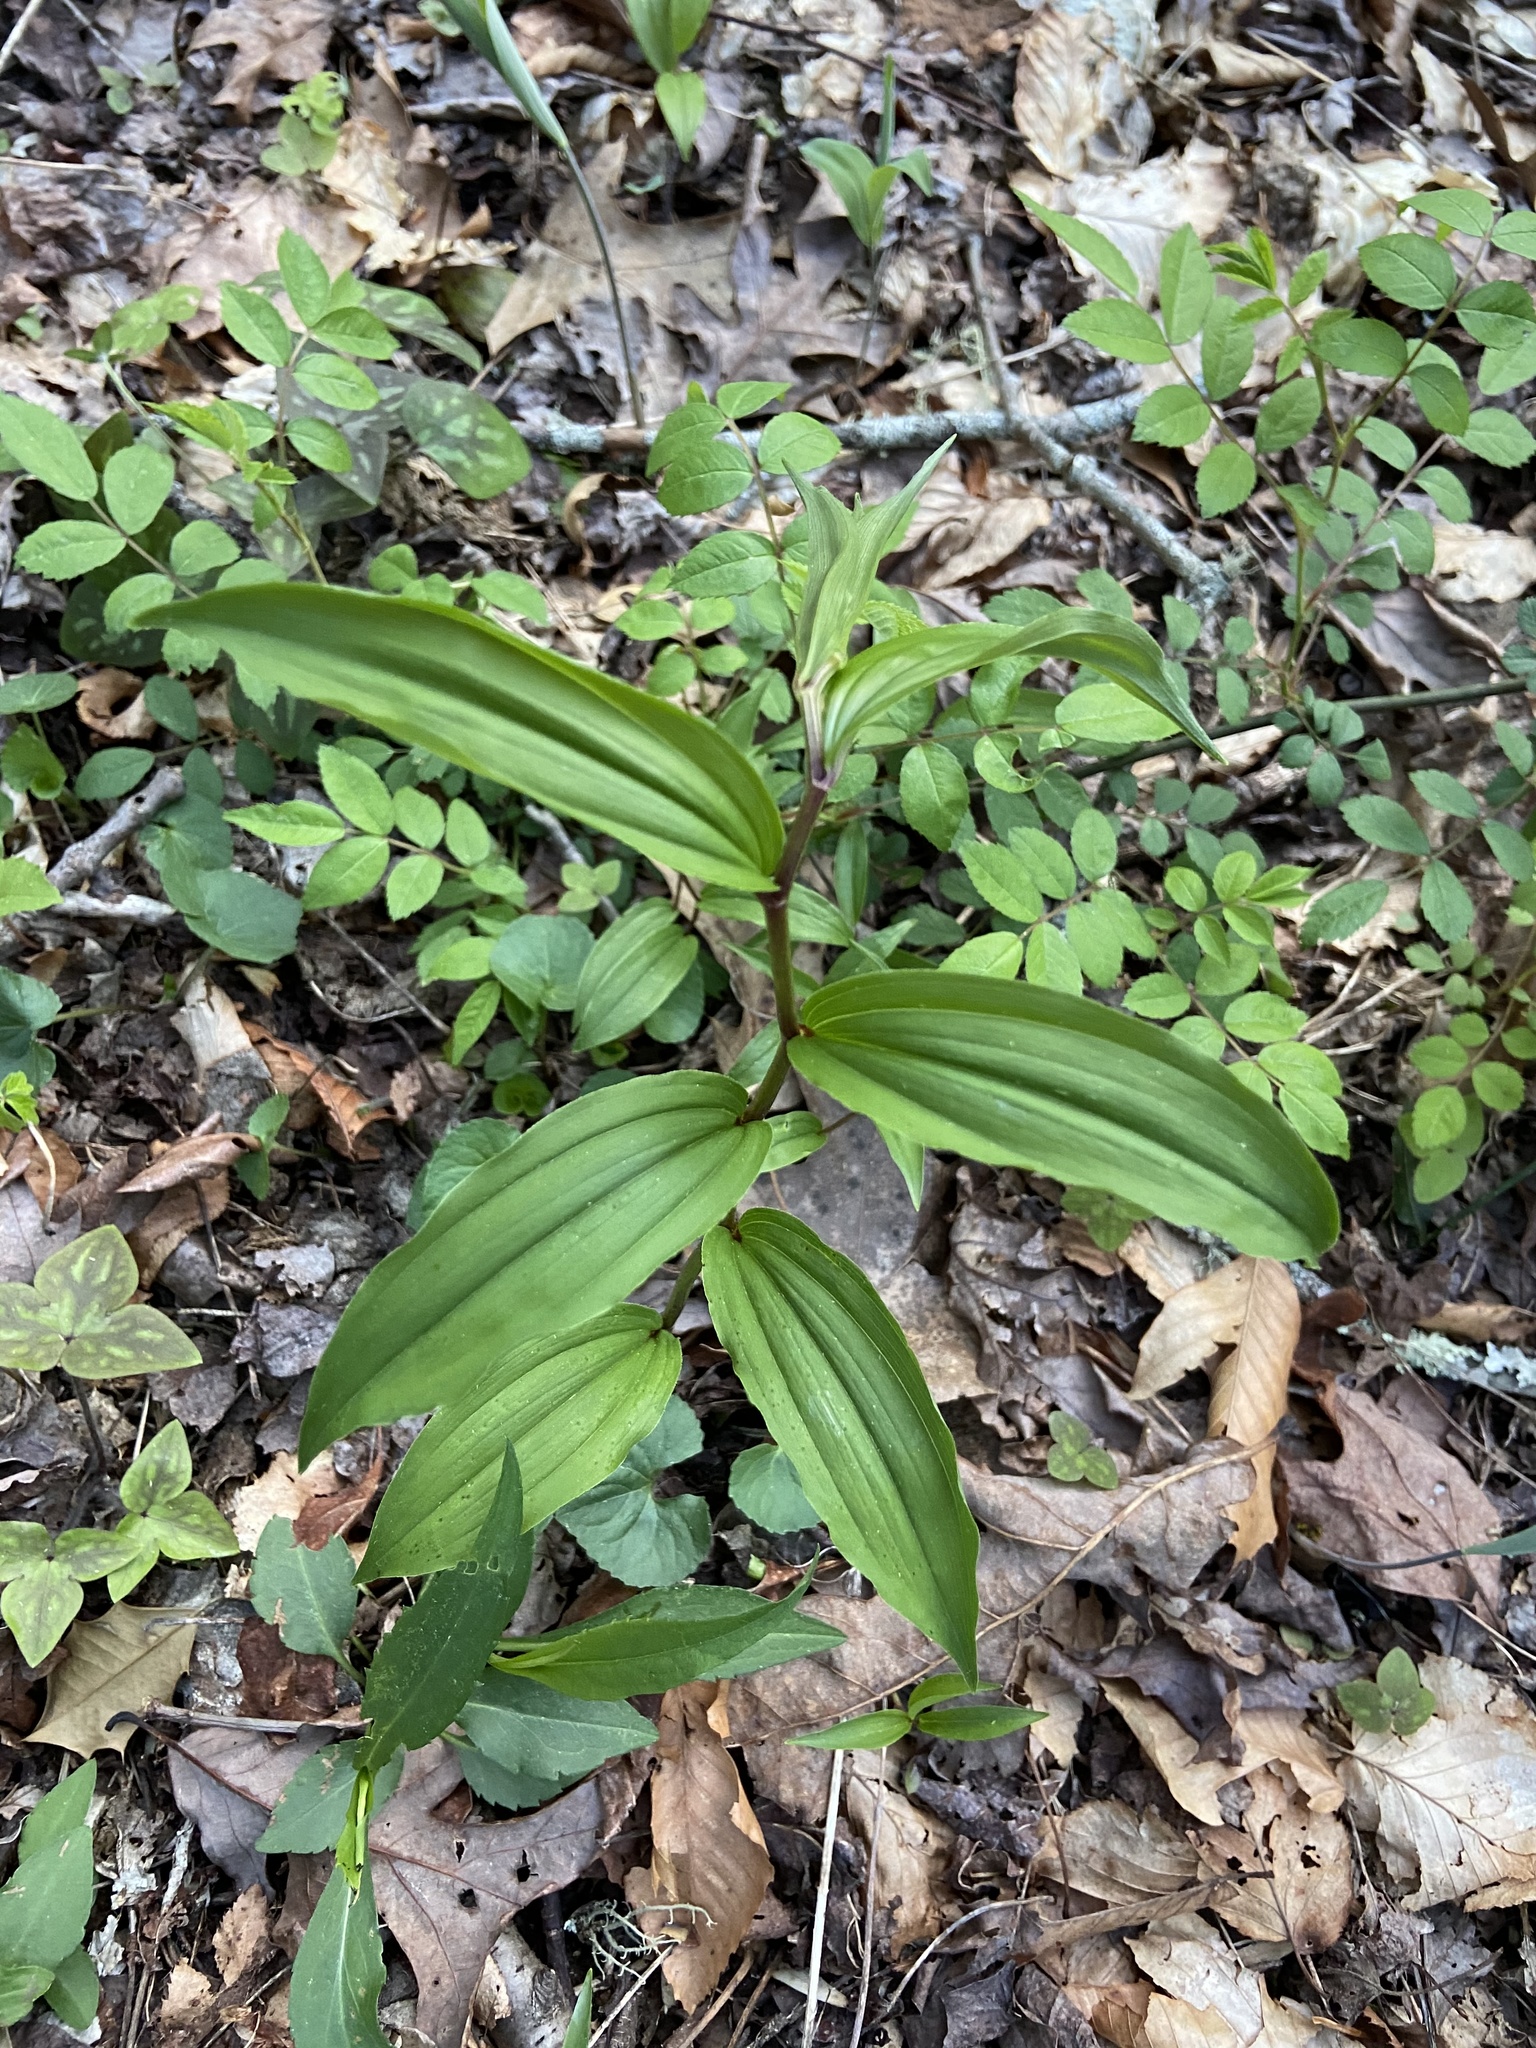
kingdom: Plantae
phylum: Tracheophyta
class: Liliopsida
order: Asparagales
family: Asparagaceae
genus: Maianthemum
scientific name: Maianthemum racemosum
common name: False spikenard
